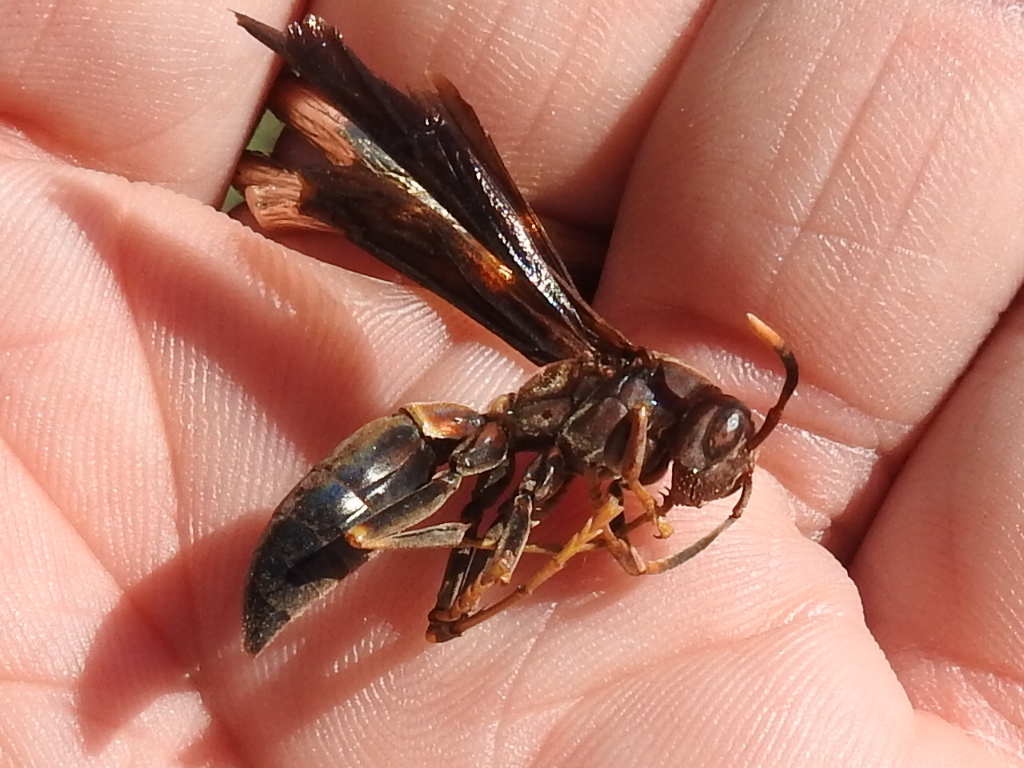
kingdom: Animalia
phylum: Arthropoda
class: Insecta
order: Hymenoptera
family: Eumenidae
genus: Polistes
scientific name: Polistes annularis
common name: Ringed paper wasp
